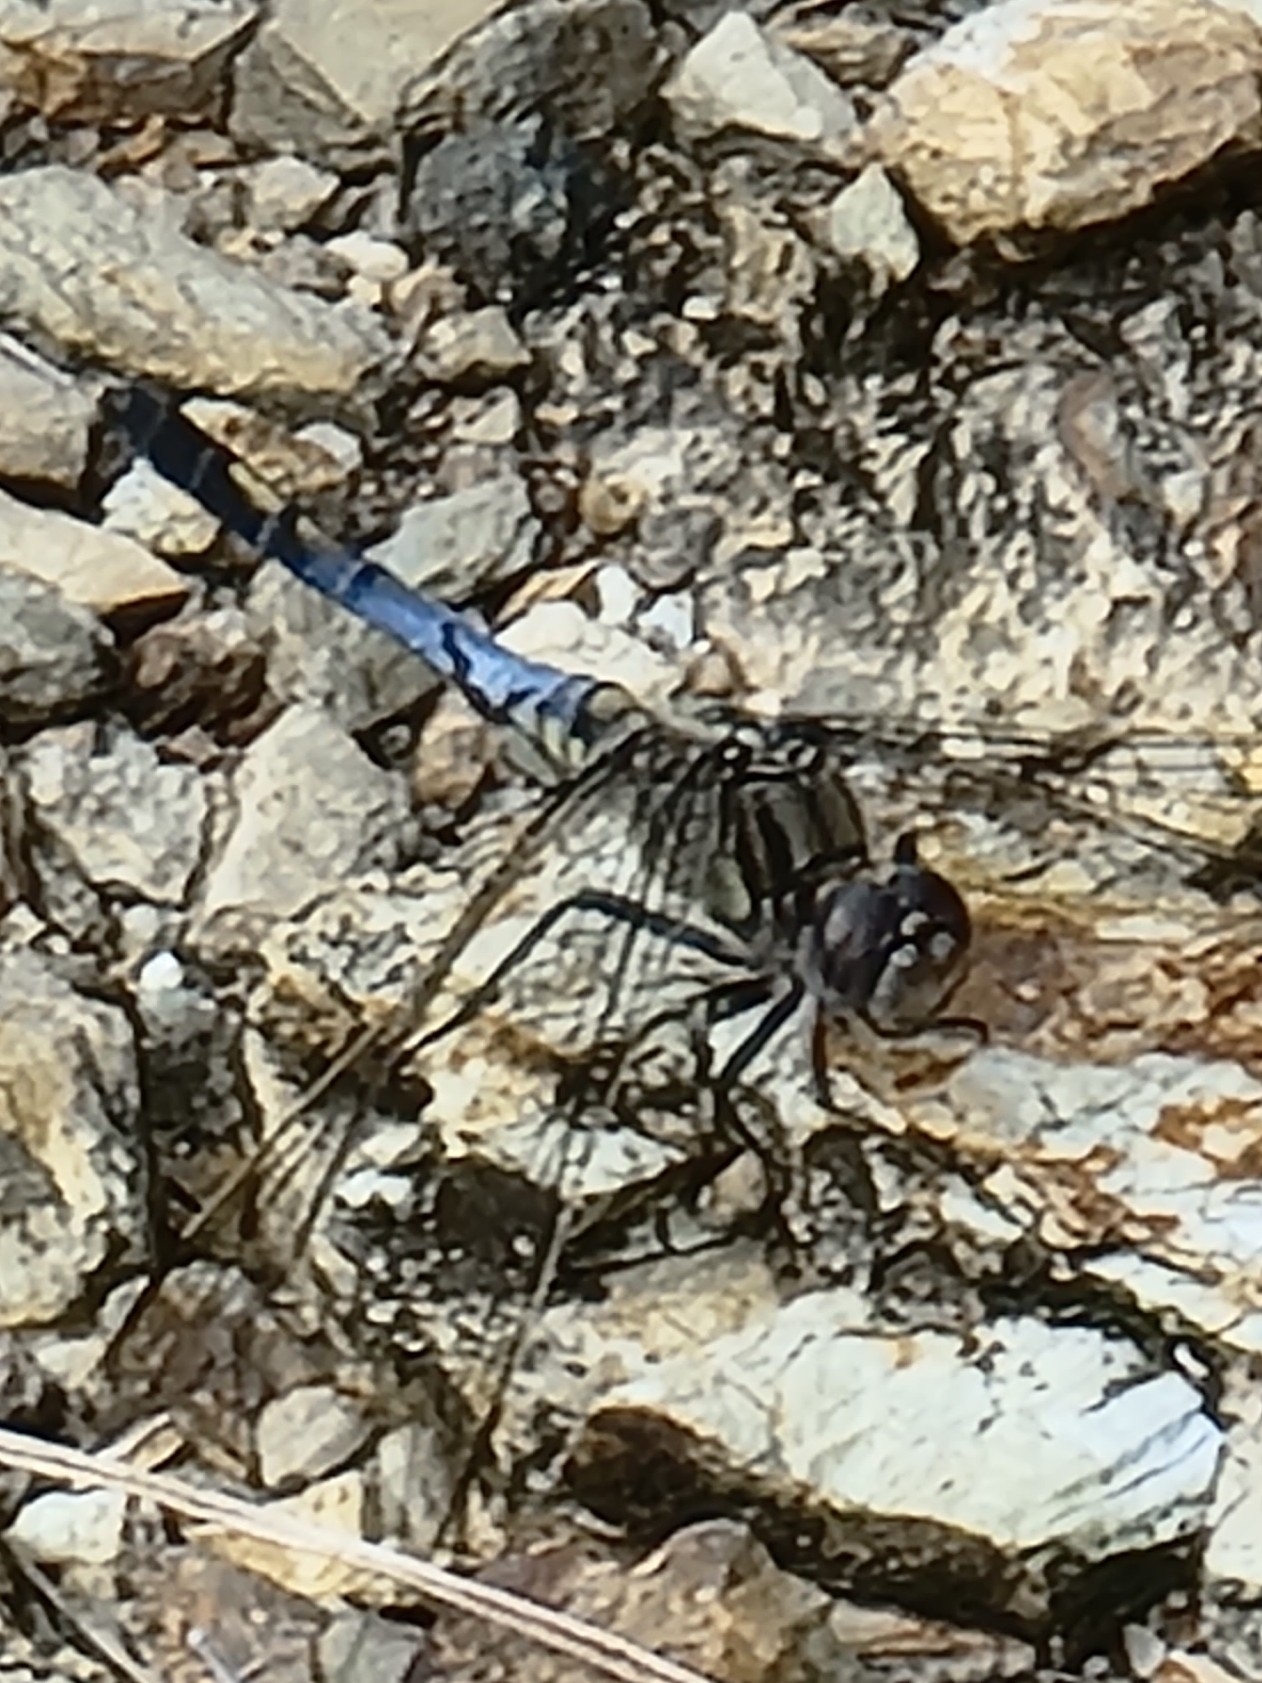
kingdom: Animalia
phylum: Arthropoda
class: Insecta
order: Odonata
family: Libellulidae
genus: Orthetrum
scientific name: Orthetrum caledonicum
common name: Blue skimmer
